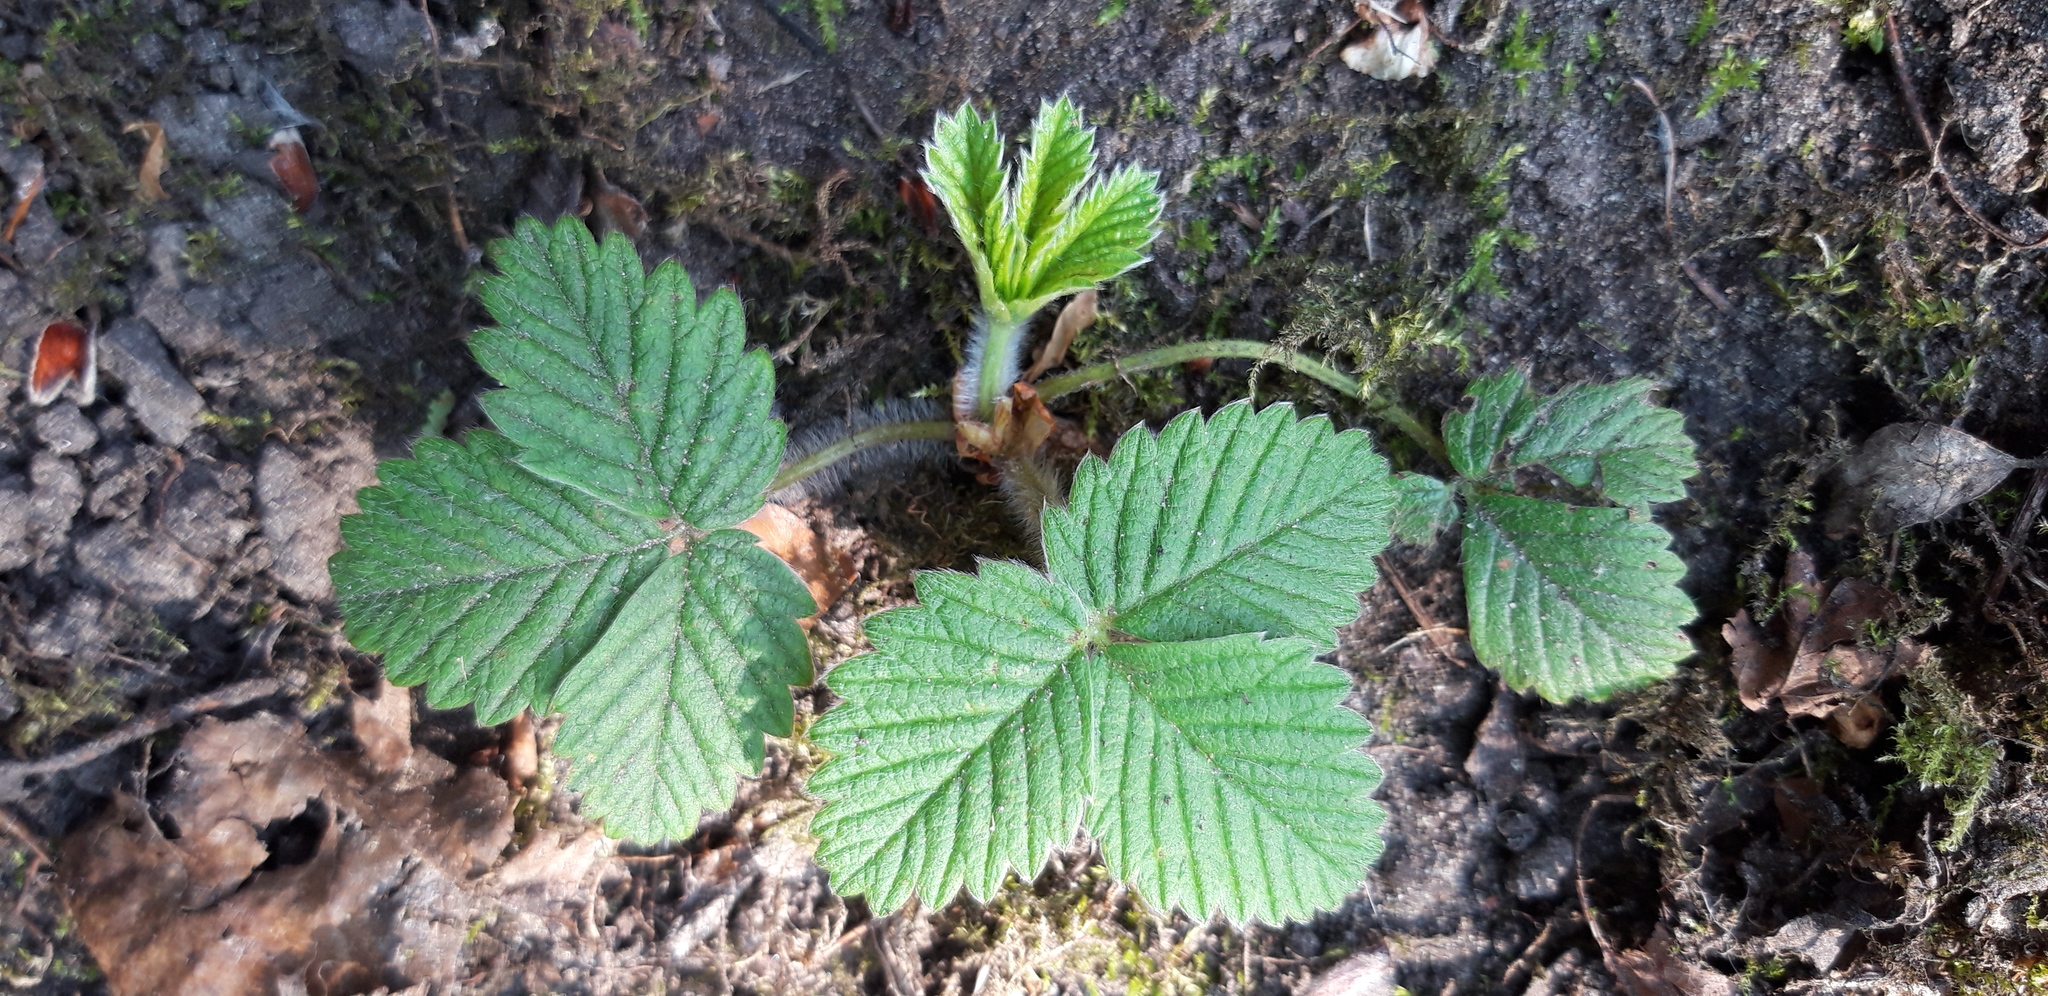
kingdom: Plantae
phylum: Tracheophyta
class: Magnoliopsida
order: Rosales
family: Rosaceae
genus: Fragaria
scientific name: Fragaria vesca
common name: Wild strawberry
